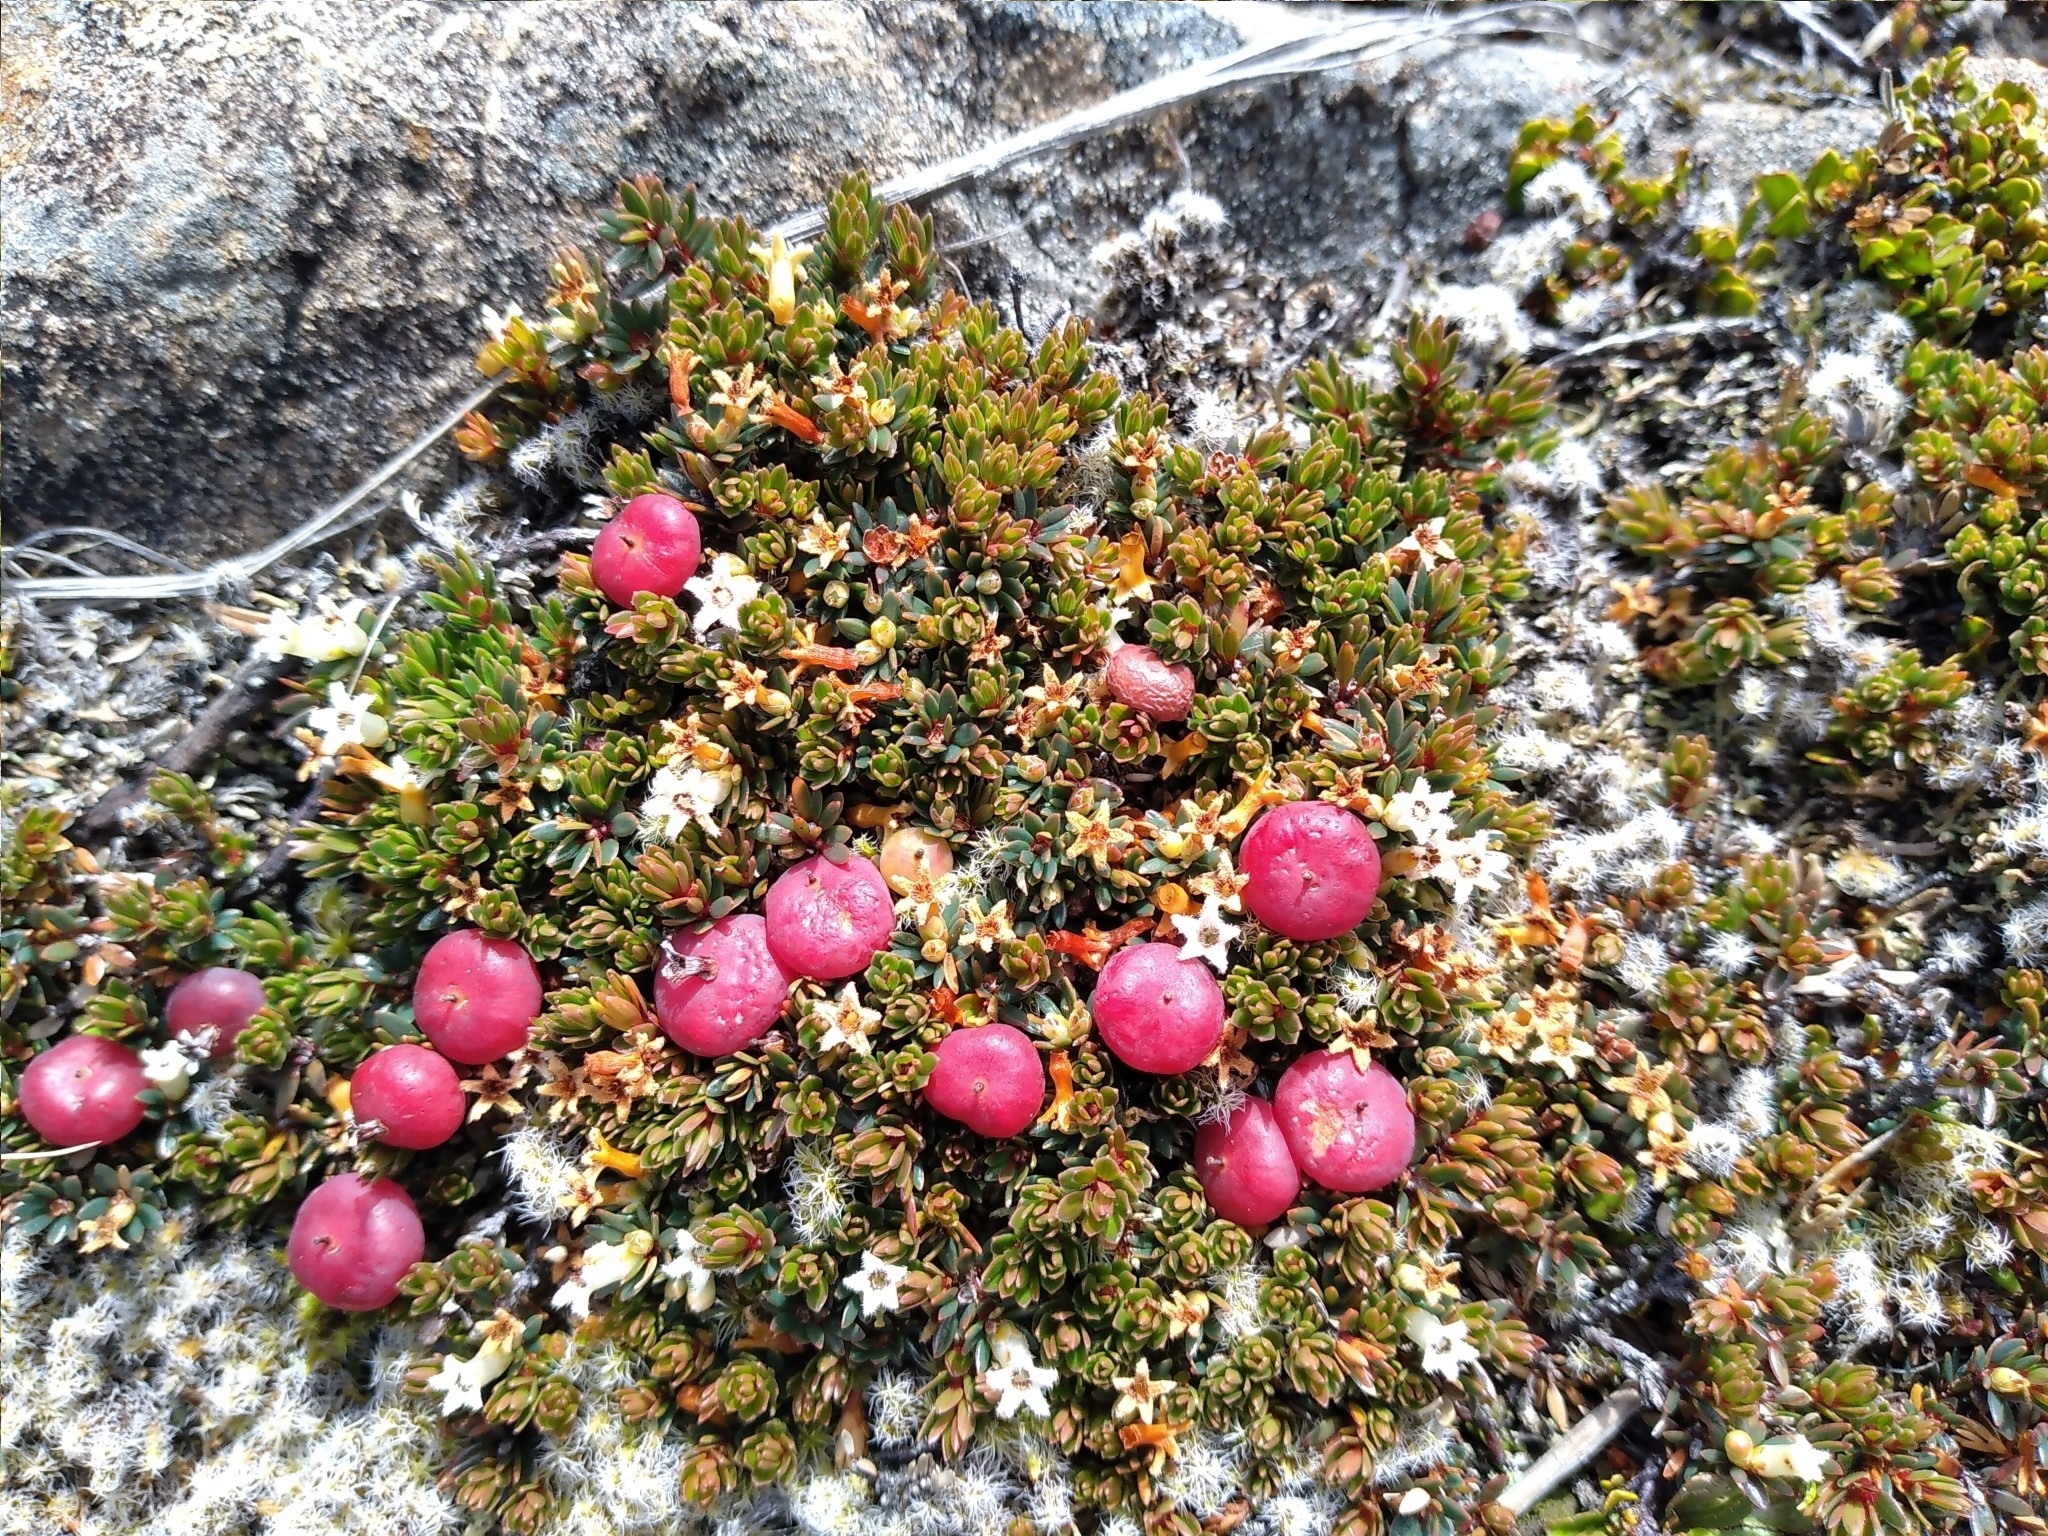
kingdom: Plantae
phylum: Tracheophyta
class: Magnoliopsida
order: Ericales
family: Ericaceae
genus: Pentachondra
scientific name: Pentachondra pumila
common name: Carpet-heath
